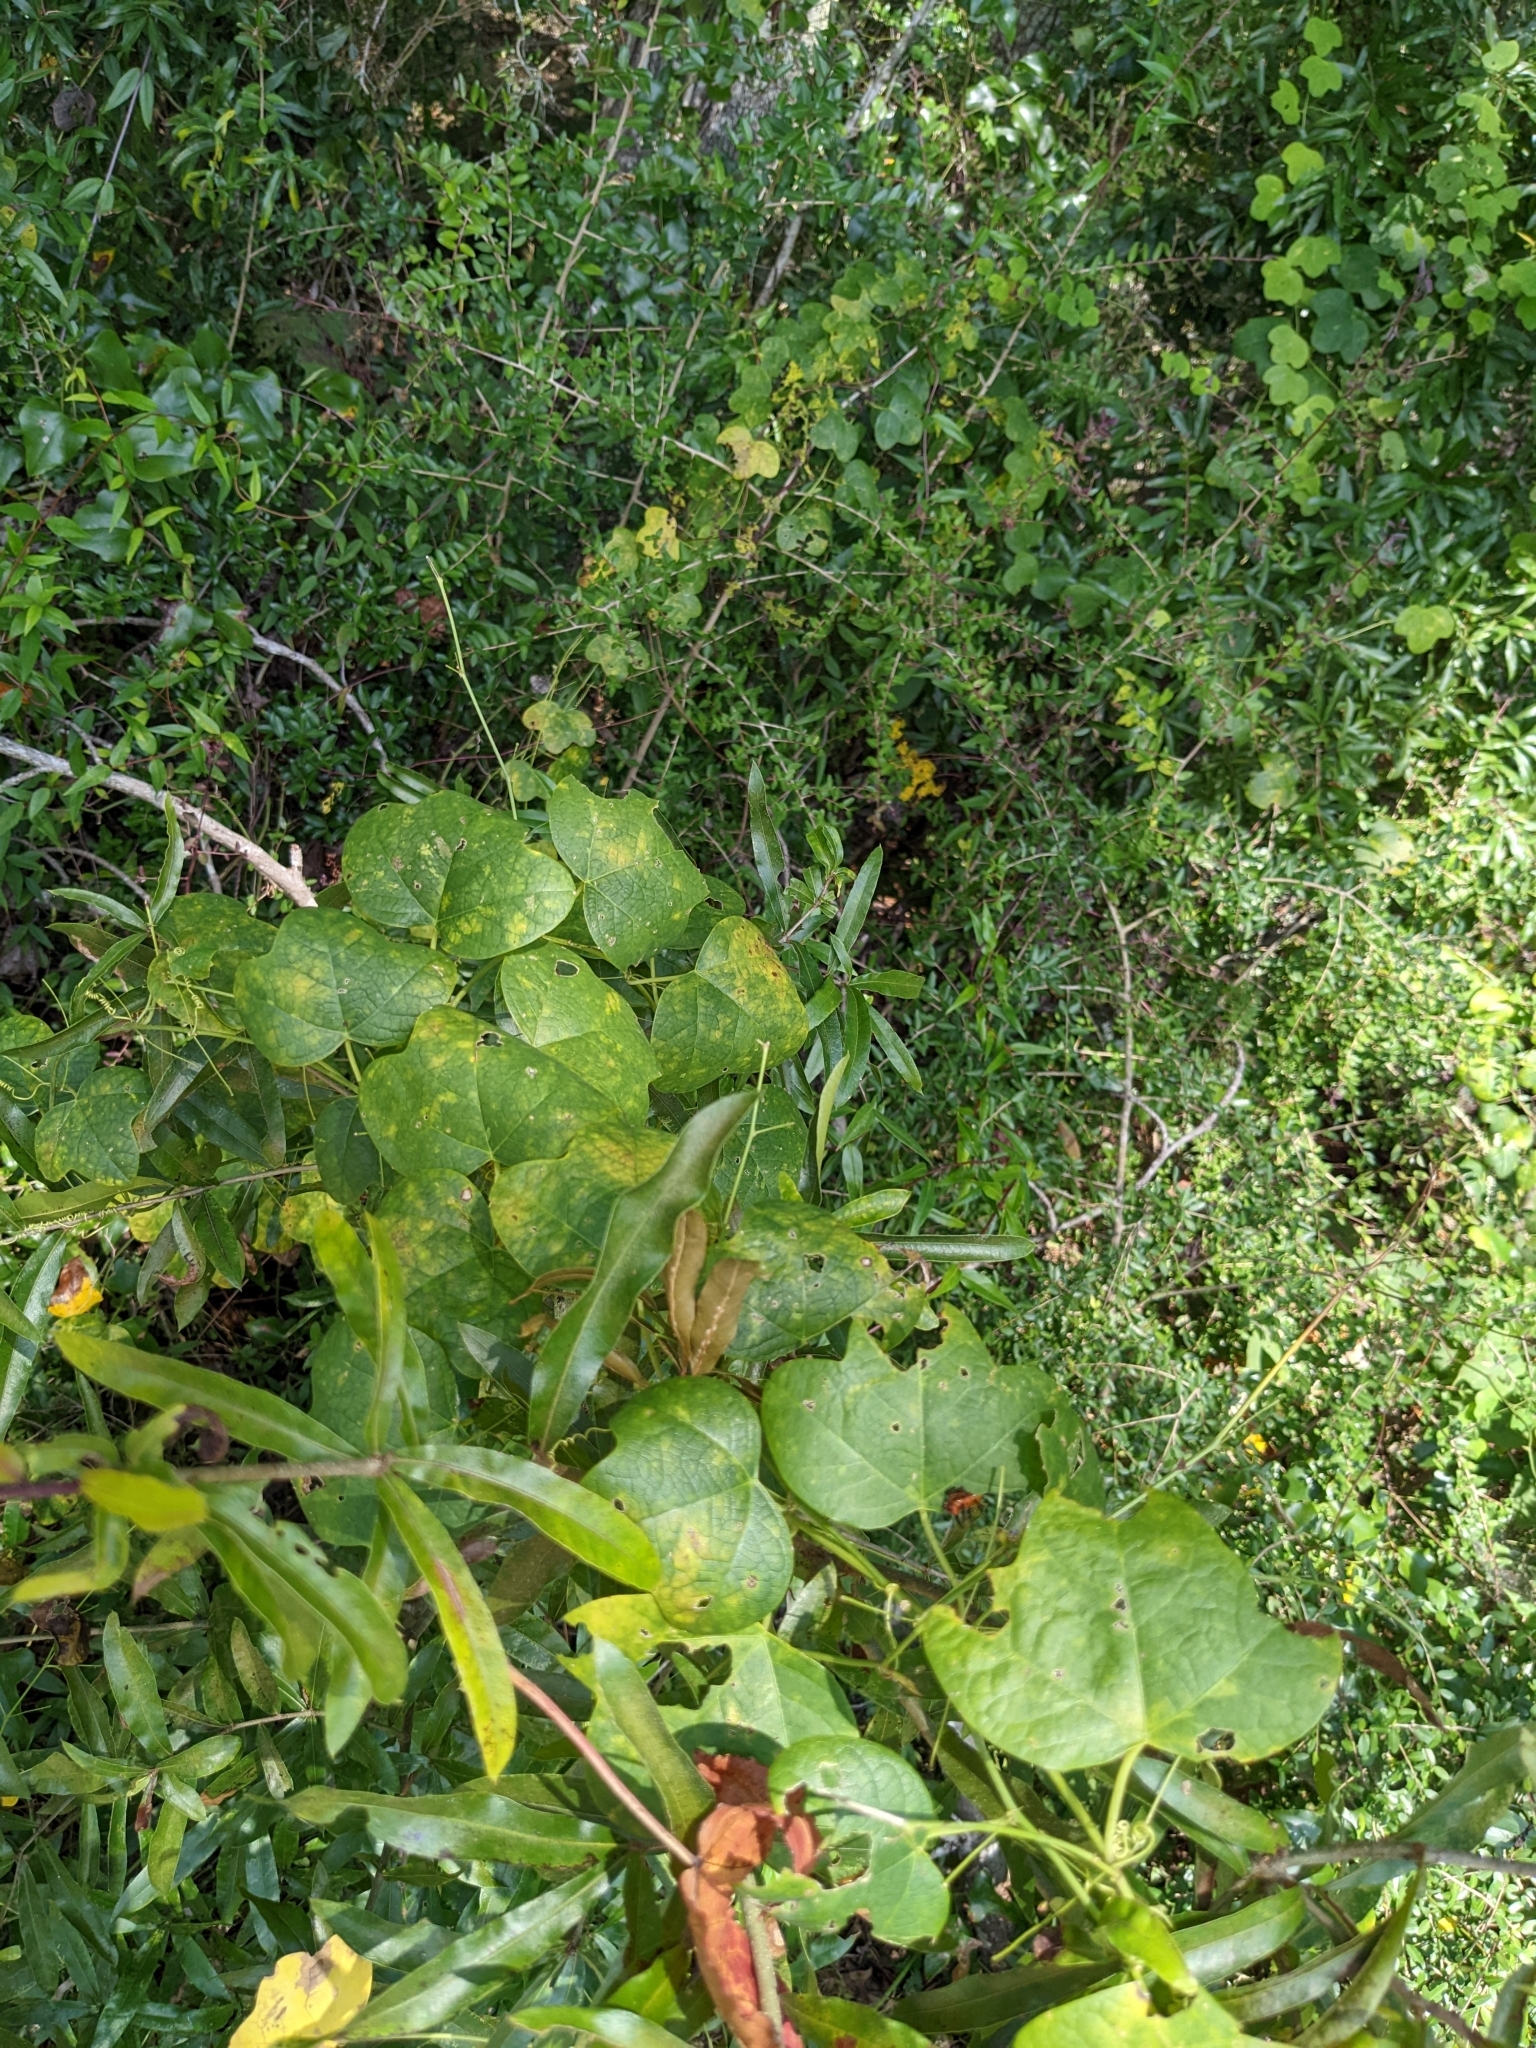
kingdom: Plantae
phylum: Tracheophyta
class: Magnoliopsida
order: Malpighiales
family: Passifloraceae
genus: Passiflora
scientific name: Passiflora lutea
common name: Yellow passionflower
